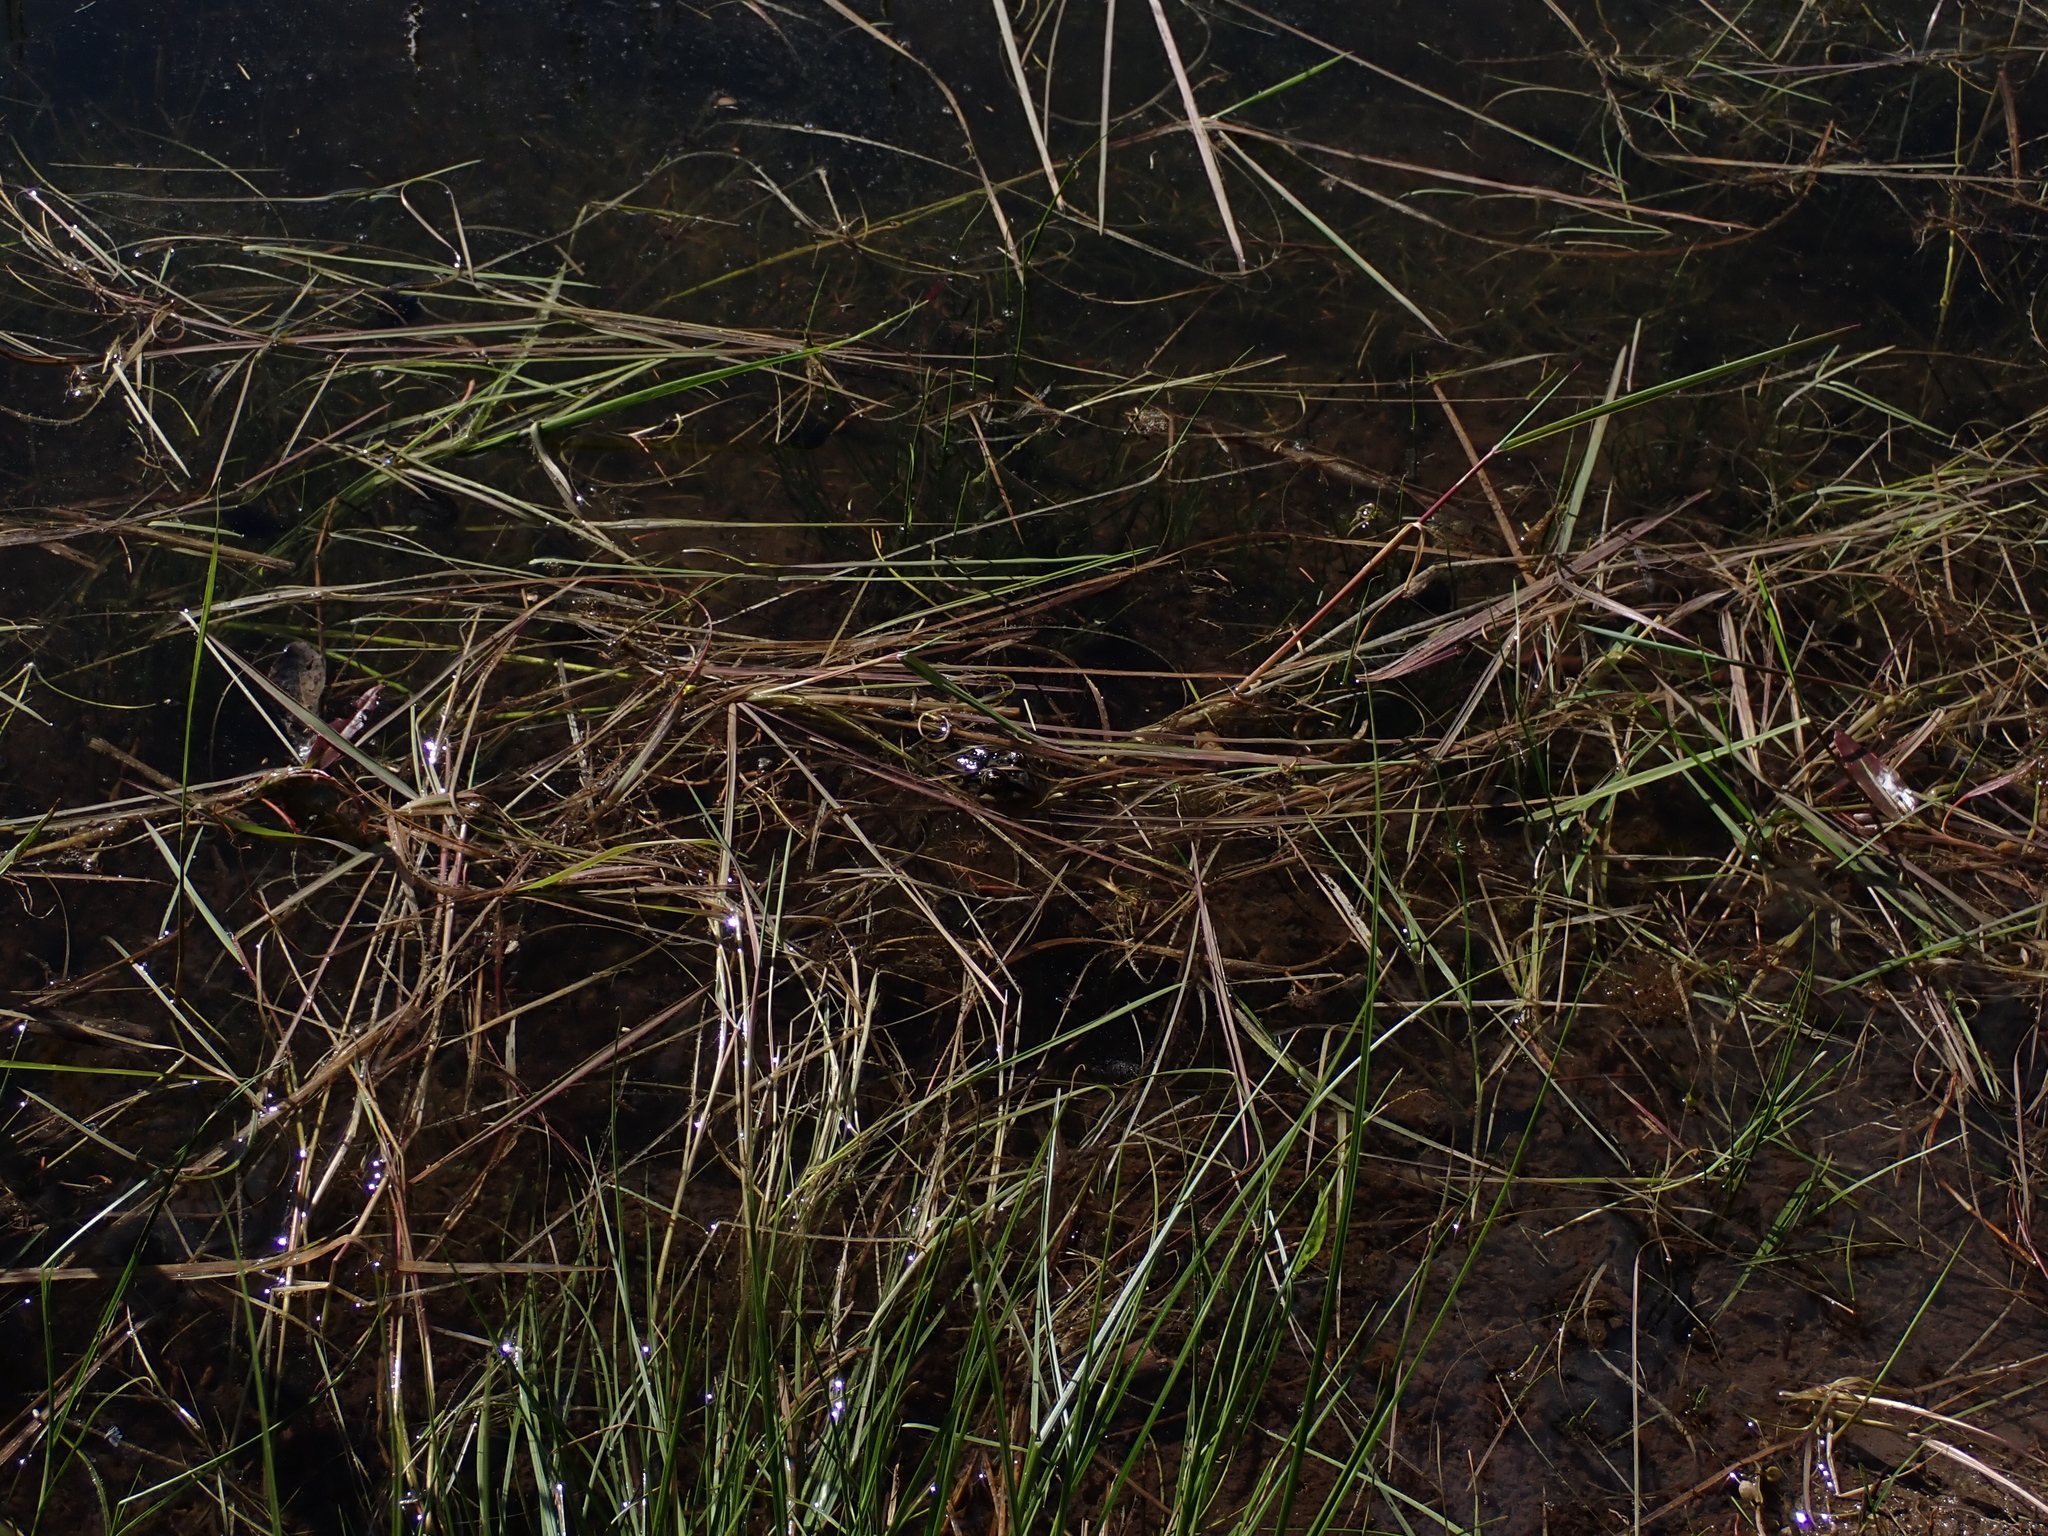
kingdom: Animalia
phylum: Chordata
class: Amphibia
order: Anura
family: Ranidae
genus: Rana
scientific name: Rana luteiventris
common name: Columbia spotted frog
